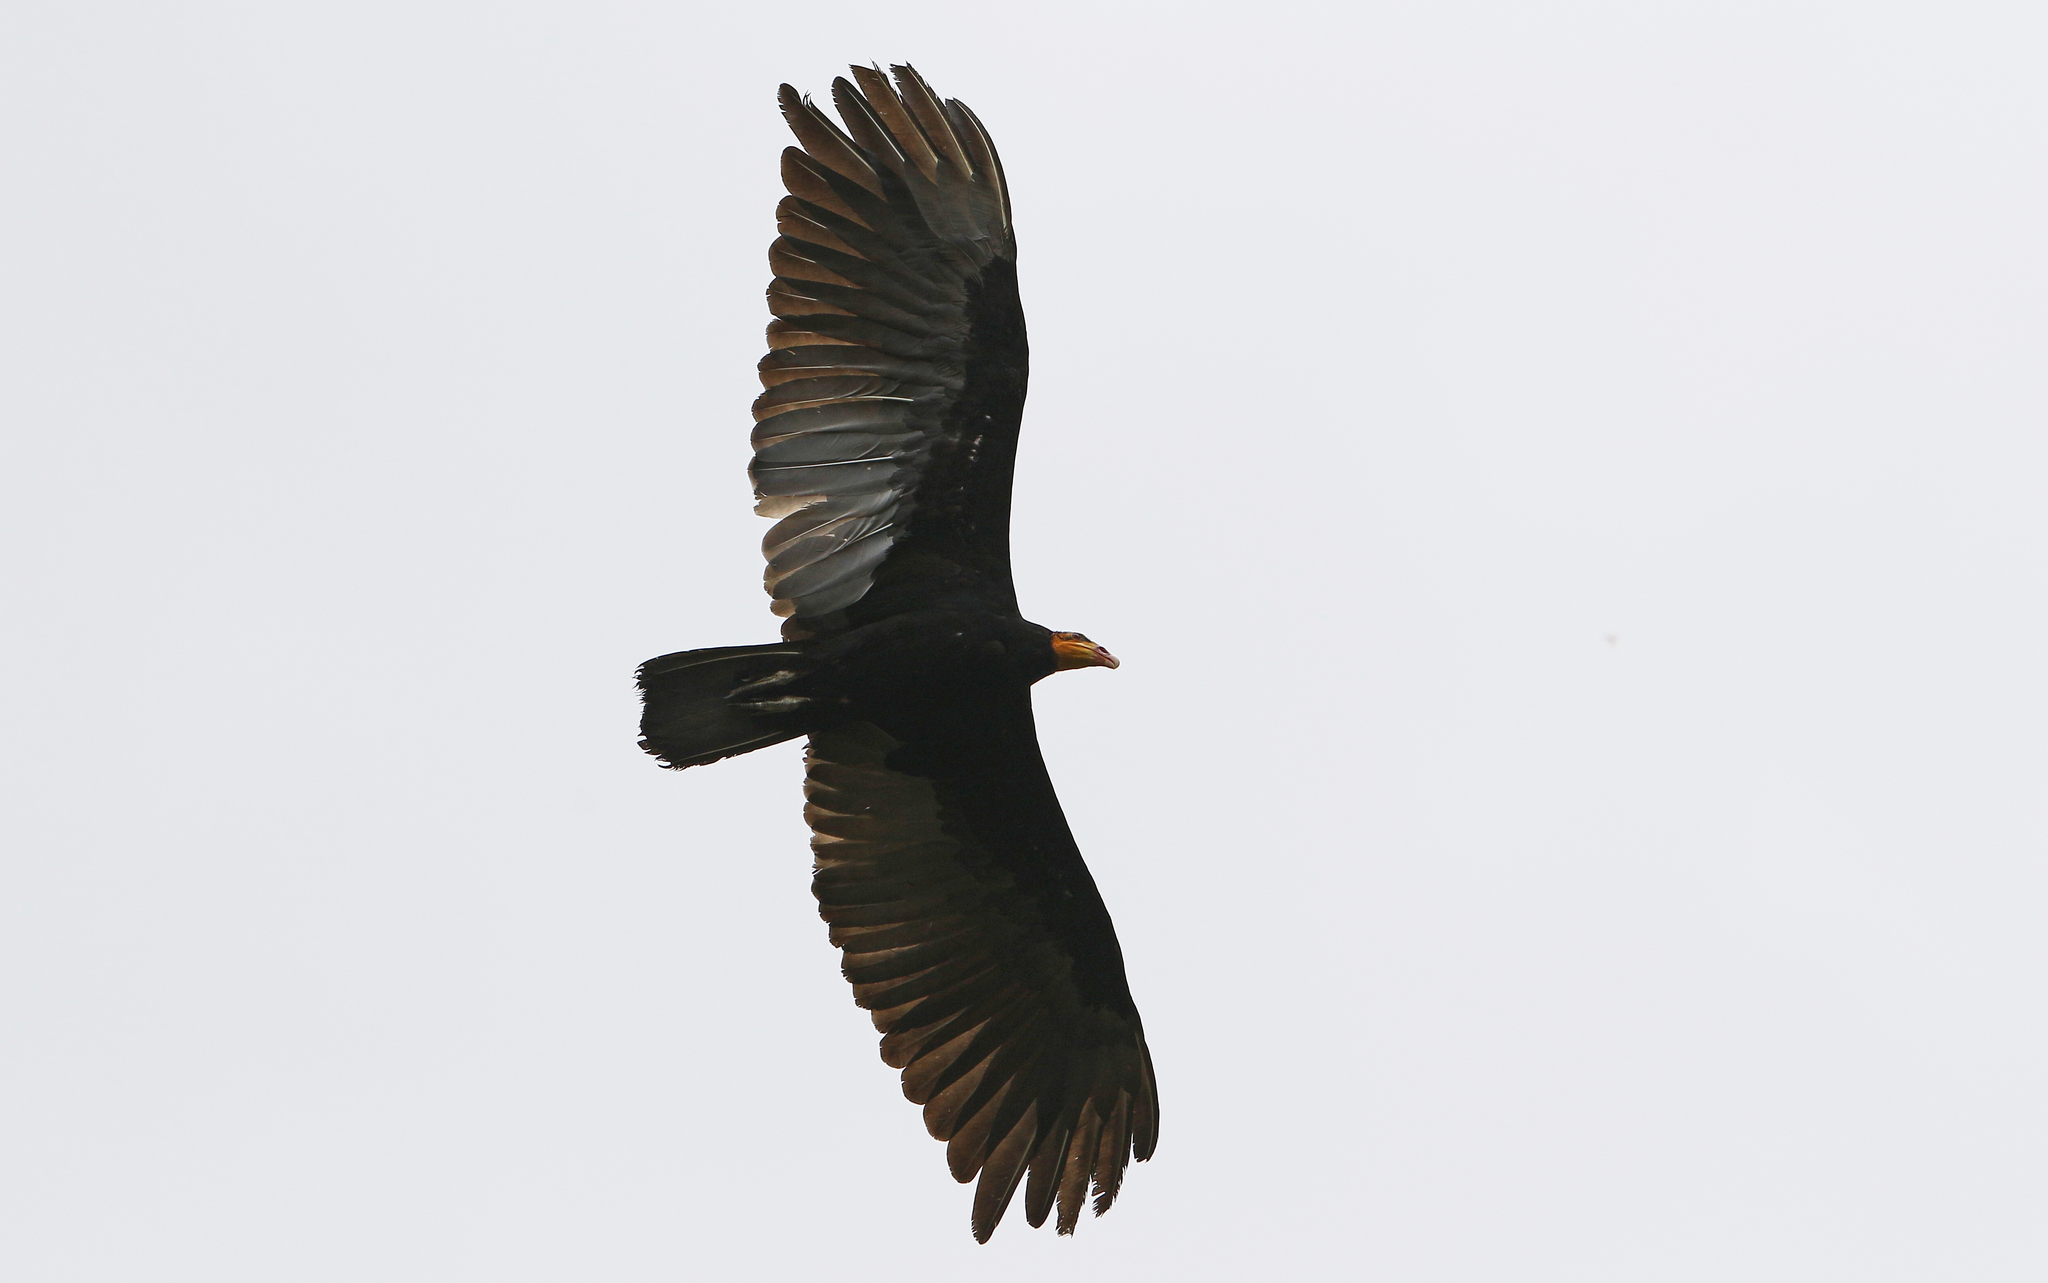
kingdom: Animalia
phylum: Chordata
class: Aves
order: Accipitriformes
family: Cathartidae
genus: Cathartes
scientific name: Cathartes melambrotus
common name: Greater yellow-headed vulture
